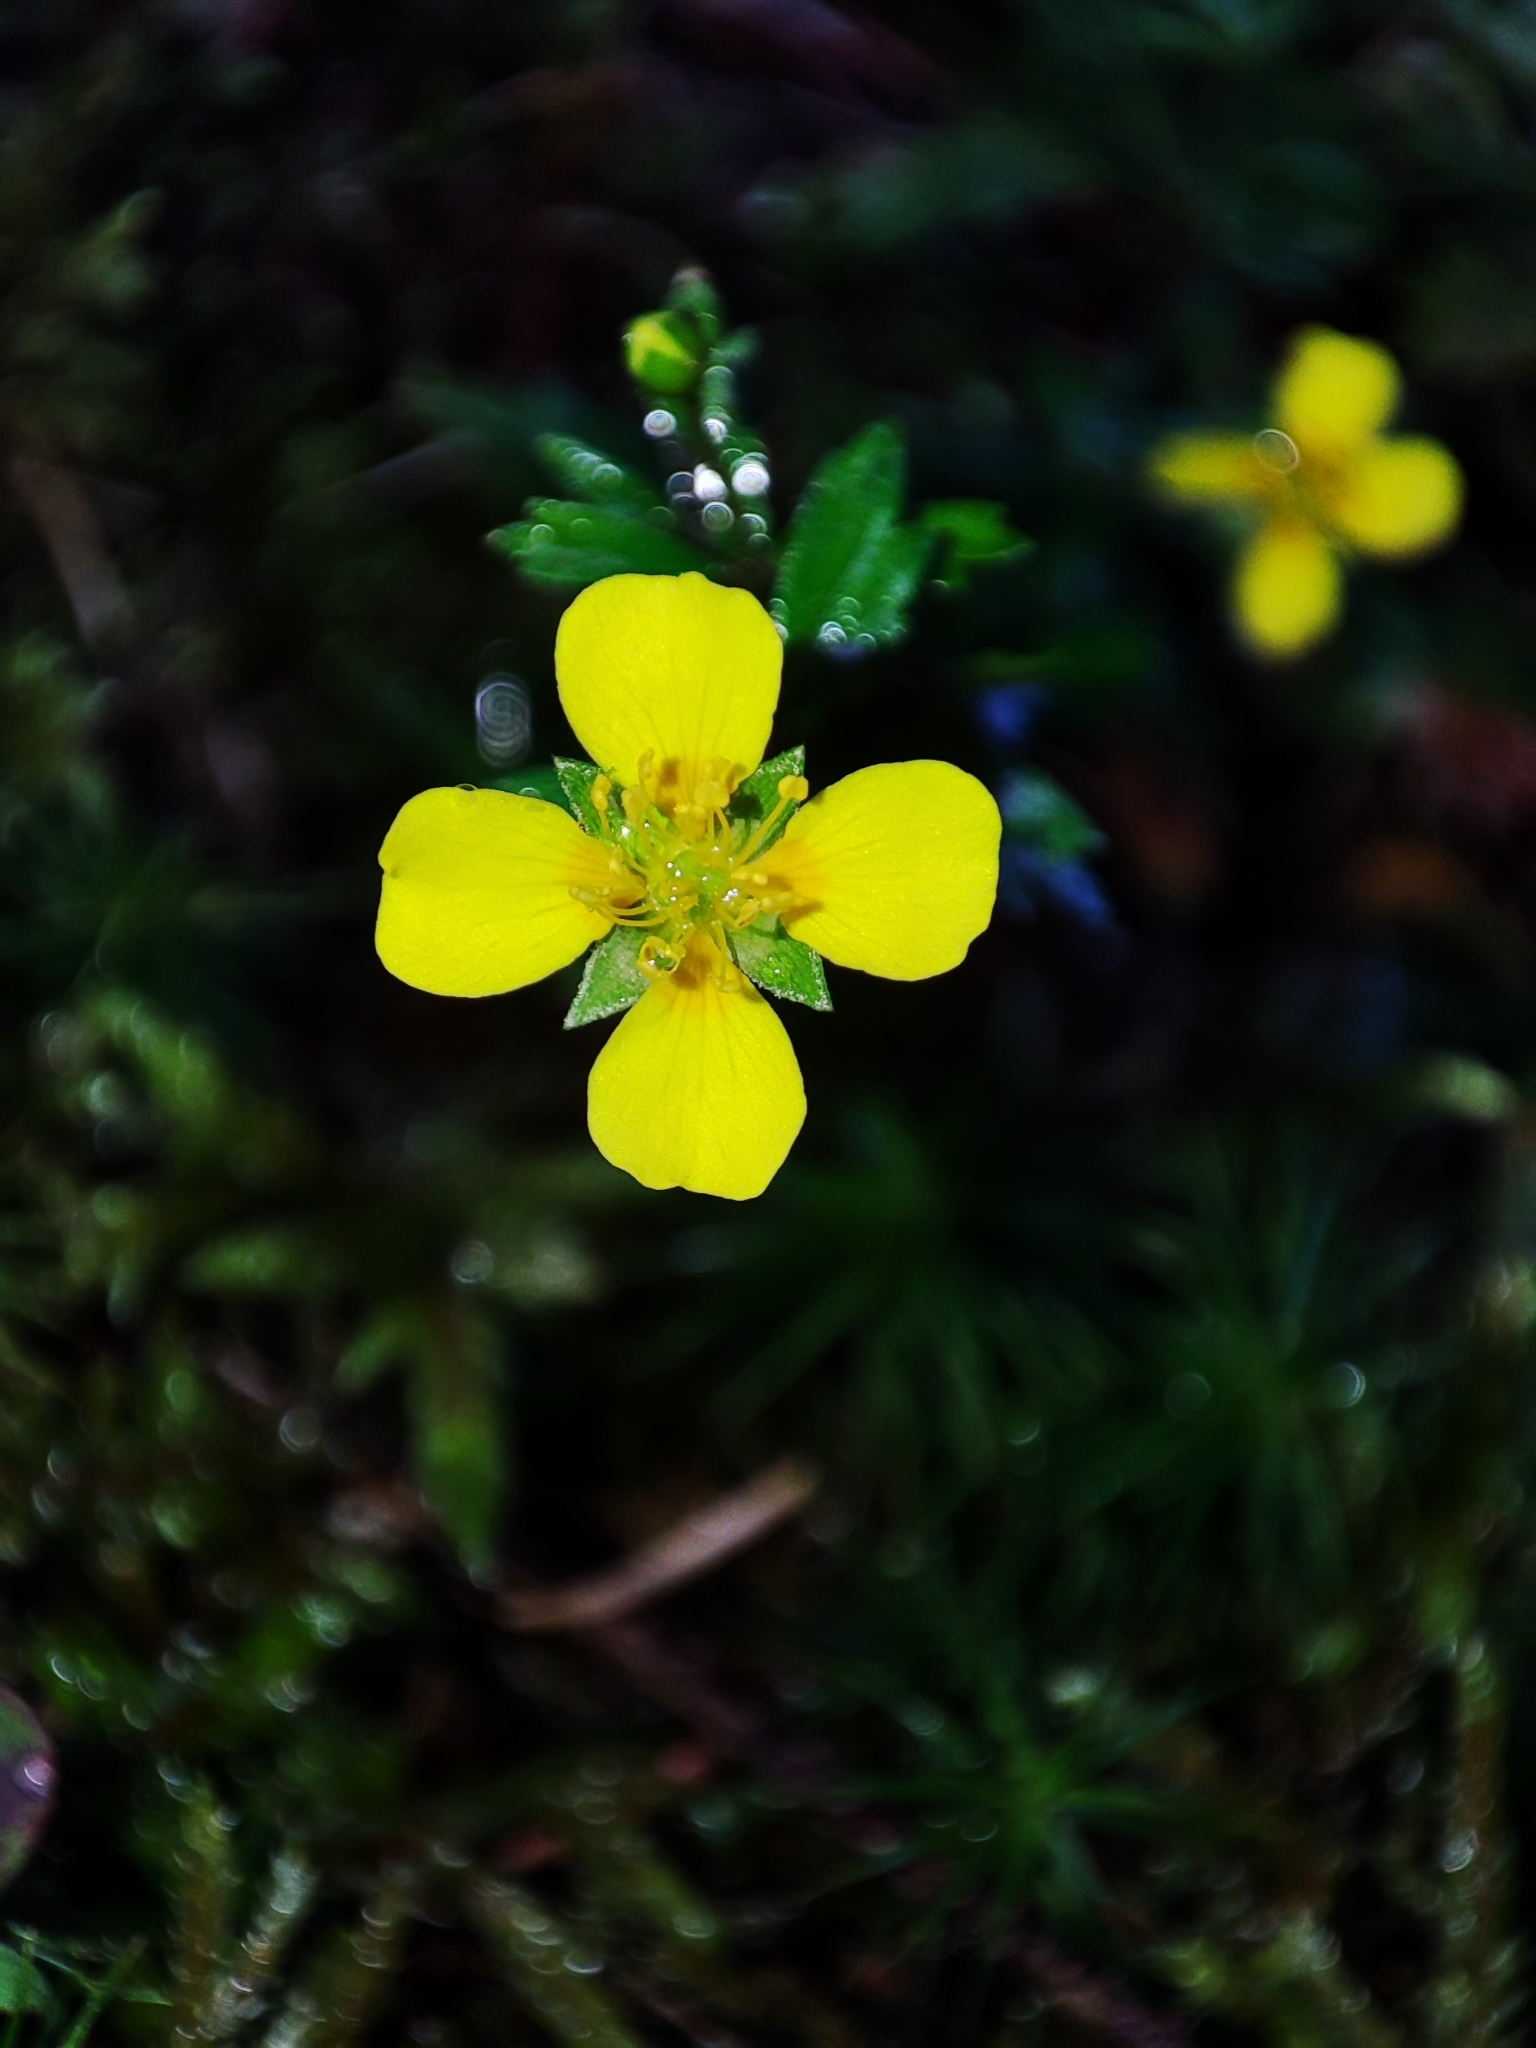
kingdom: Plantae
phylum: Tracheophyta
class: Magnoliopsida
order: Rosales
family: Rosaceae
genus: Potentilla
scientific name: Potentilla erecta
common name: Tormentil
